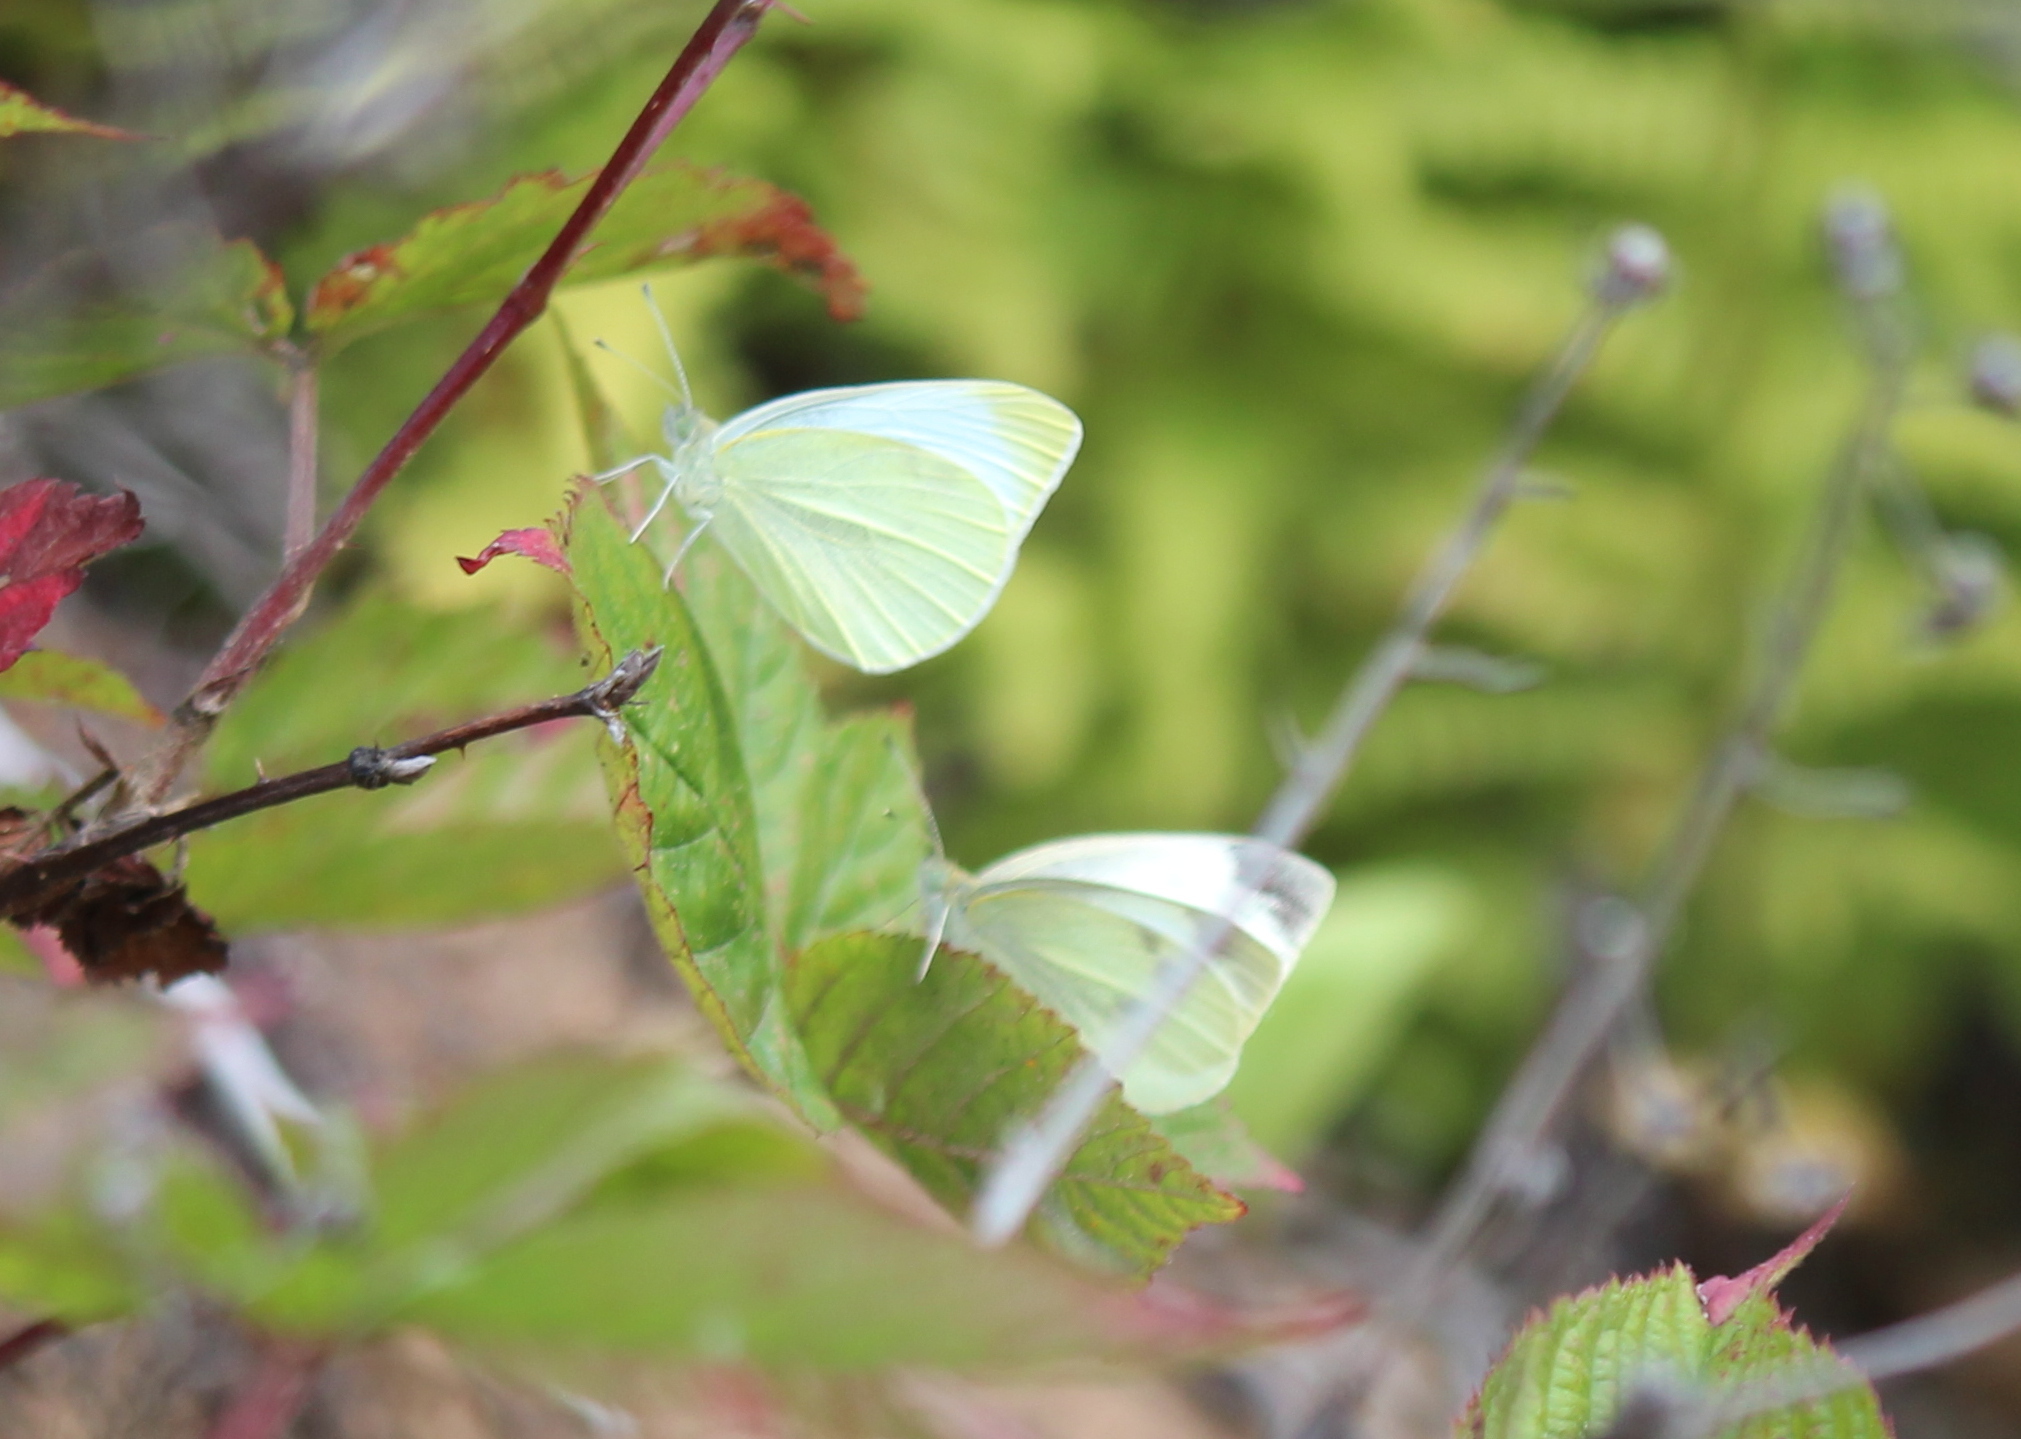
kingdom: Animalia
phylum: Arthropoda
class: Insecta
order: Lepidoptera
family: Pieridae
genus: Pieris
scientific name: Pieris rapae
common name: Small white
